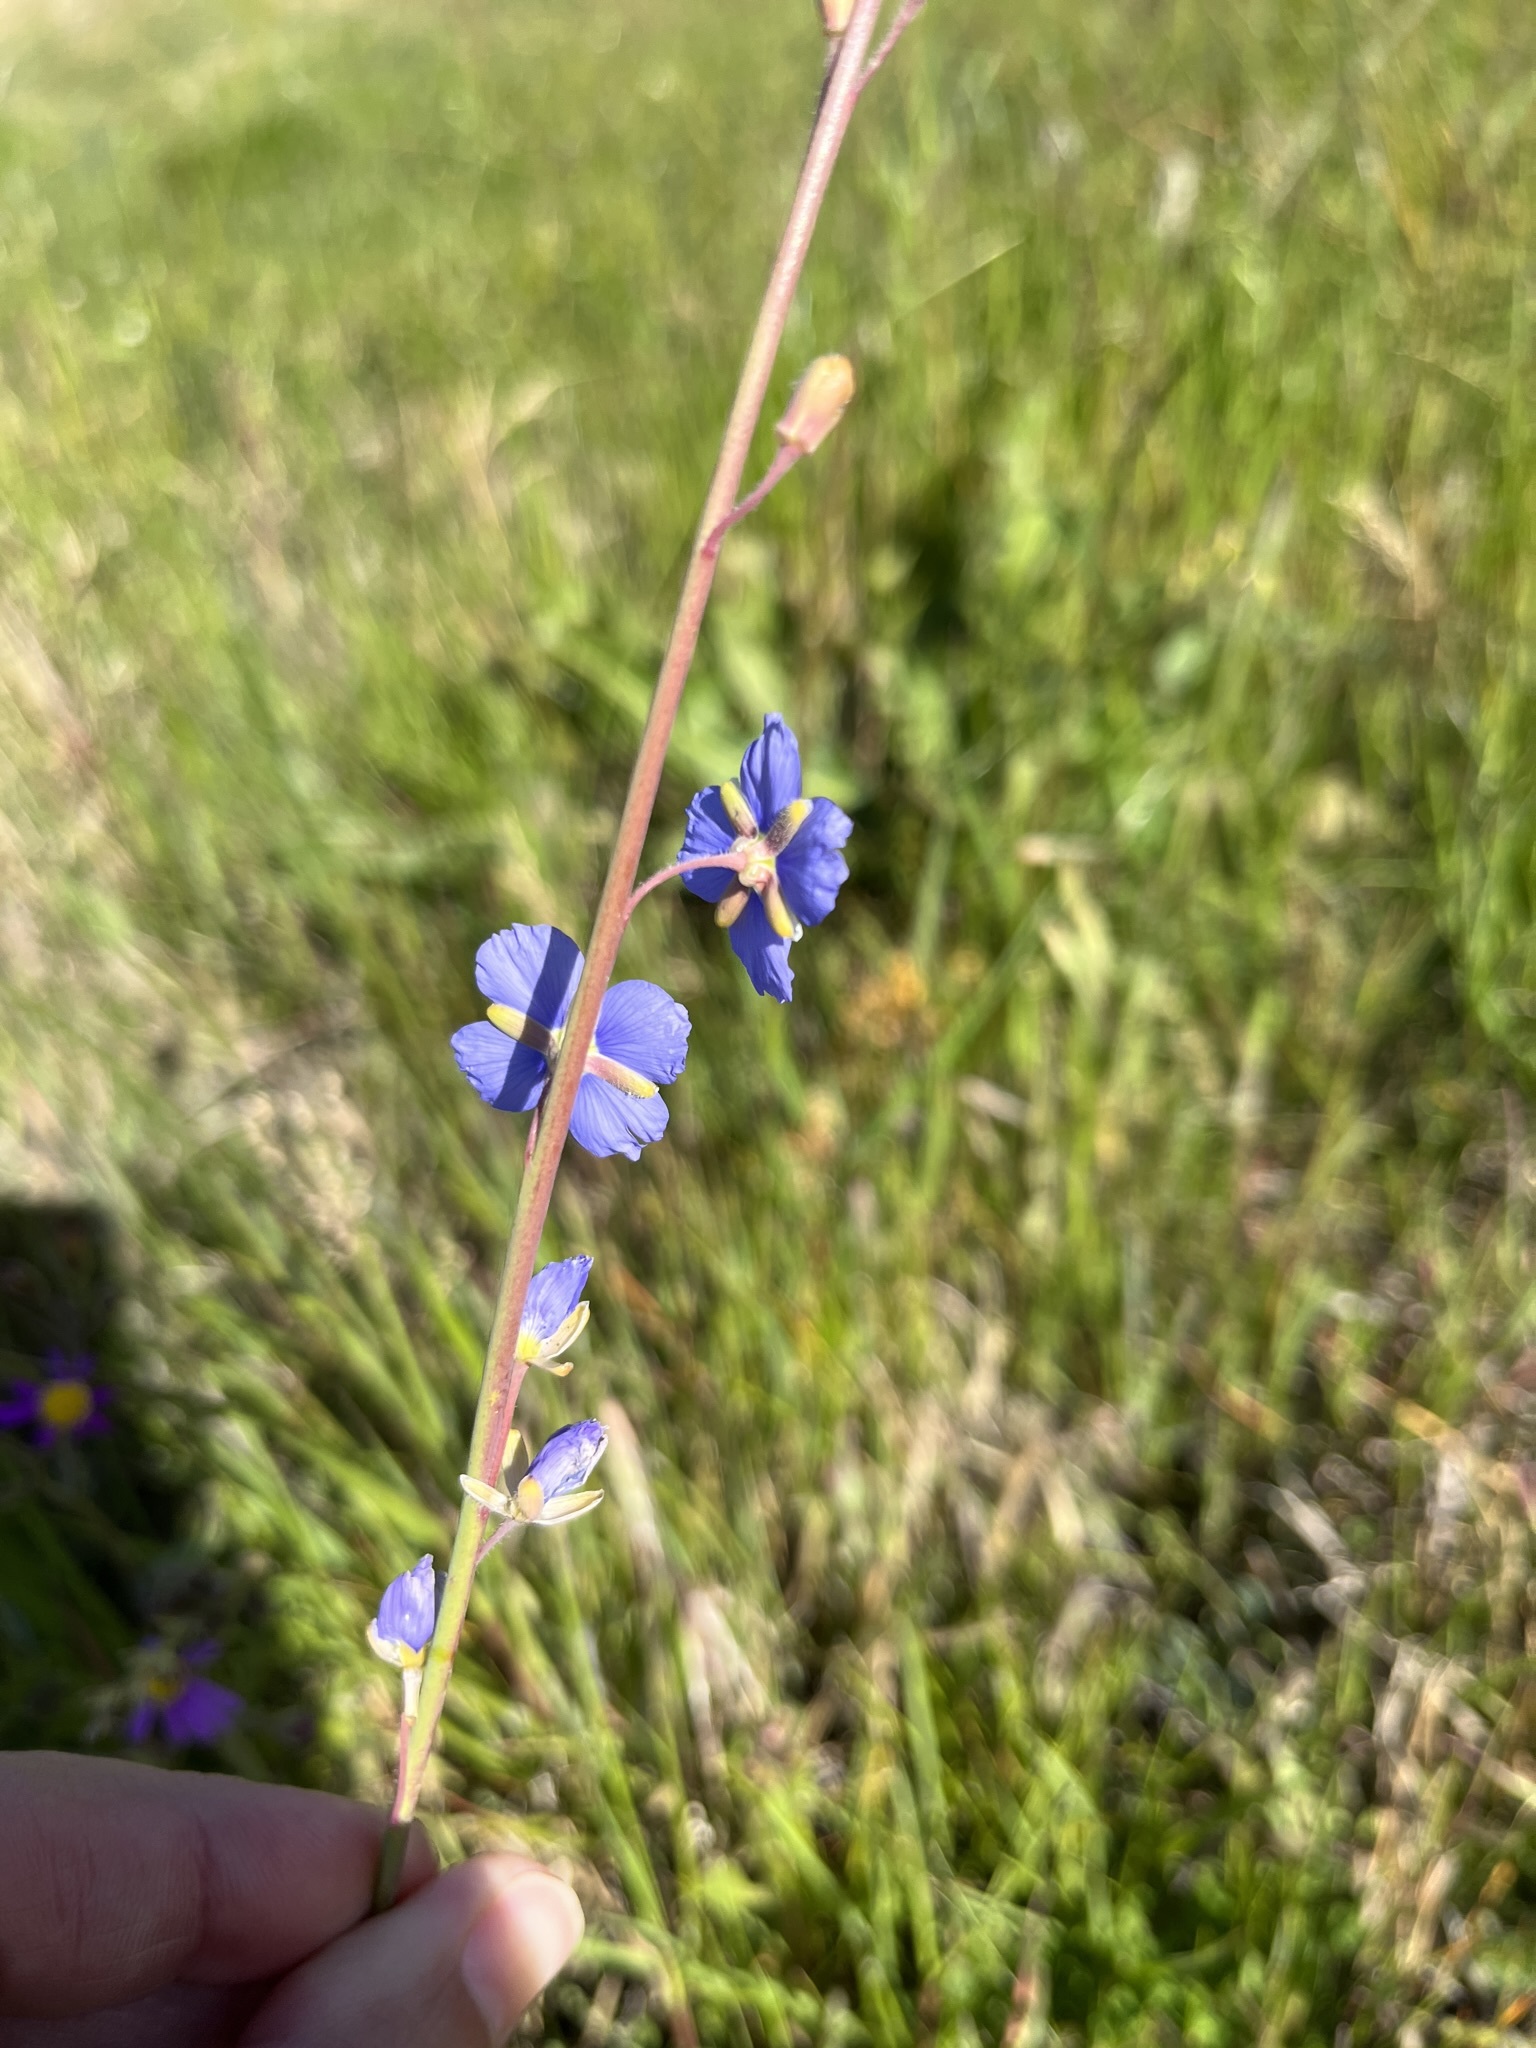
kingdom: Plantae
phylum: Tracheophyta
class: Magnoliopsida
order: Brassicales
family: Brassicaceae
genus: Heliophila
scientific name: Heliophila africana
